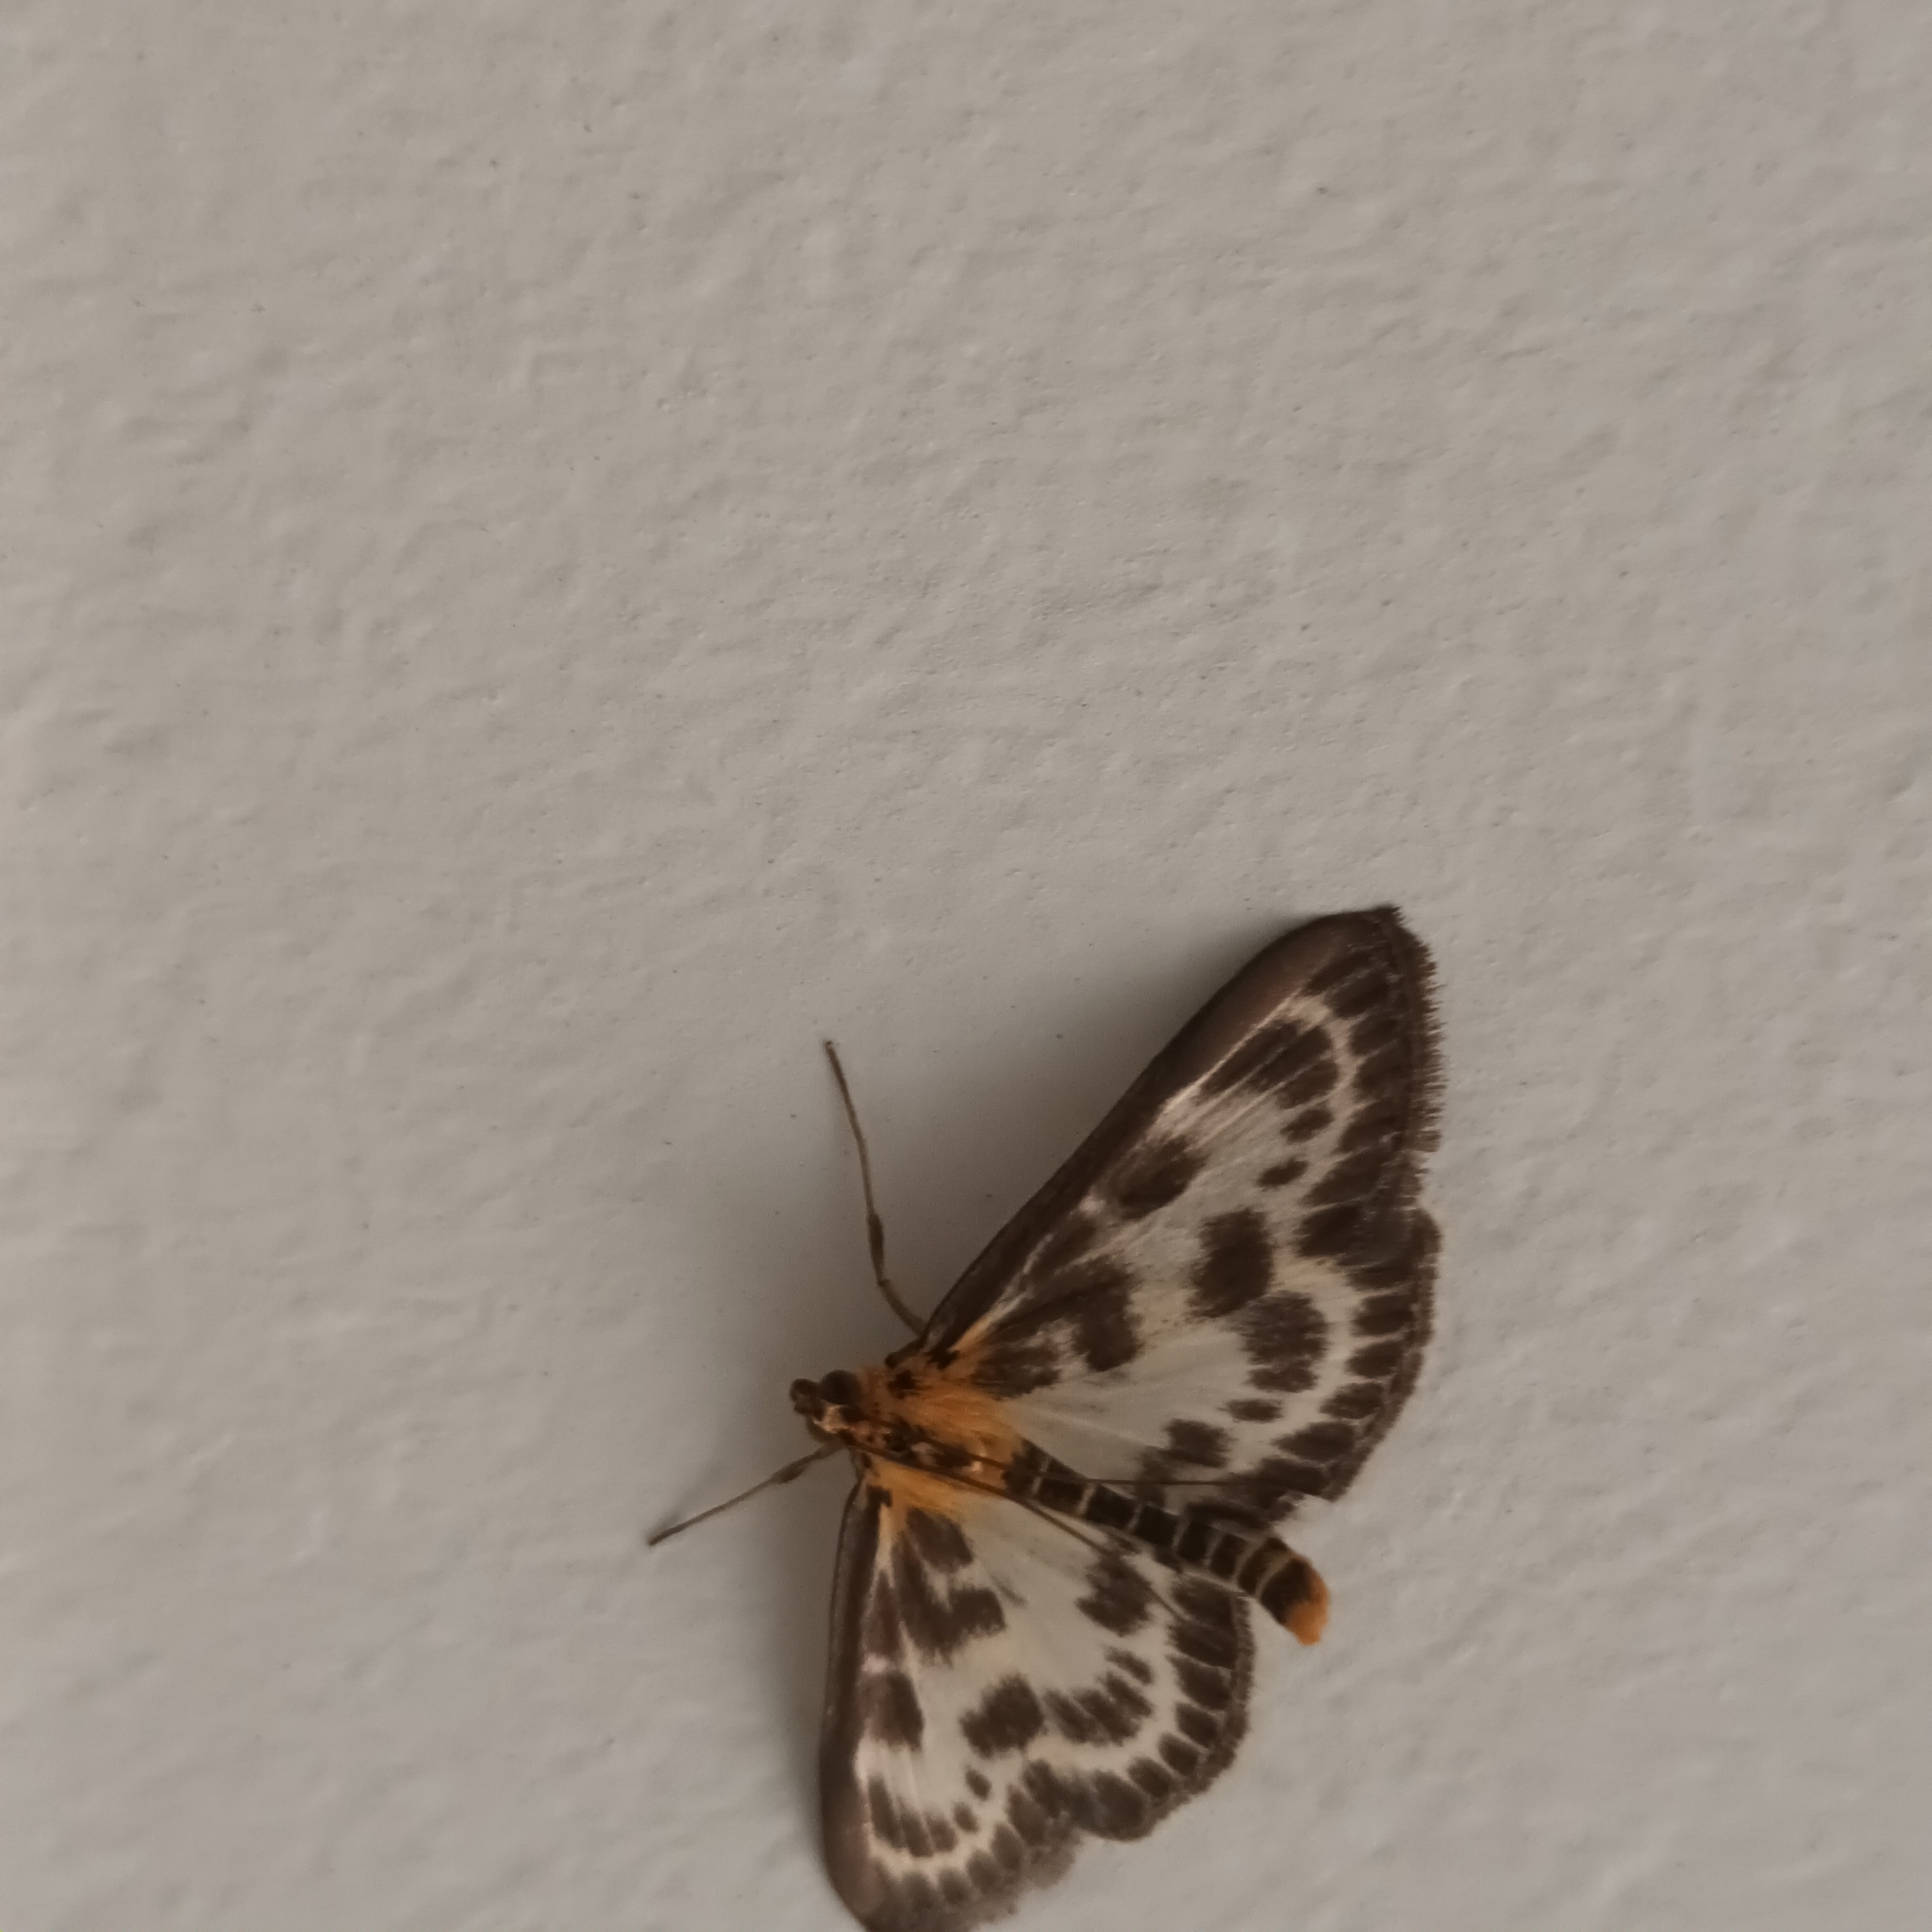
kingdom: Animalia
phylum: Arthropoda
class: Insecta
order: Lepidoptera
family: Crambidae
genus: Anania
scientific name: Anania hortulata
